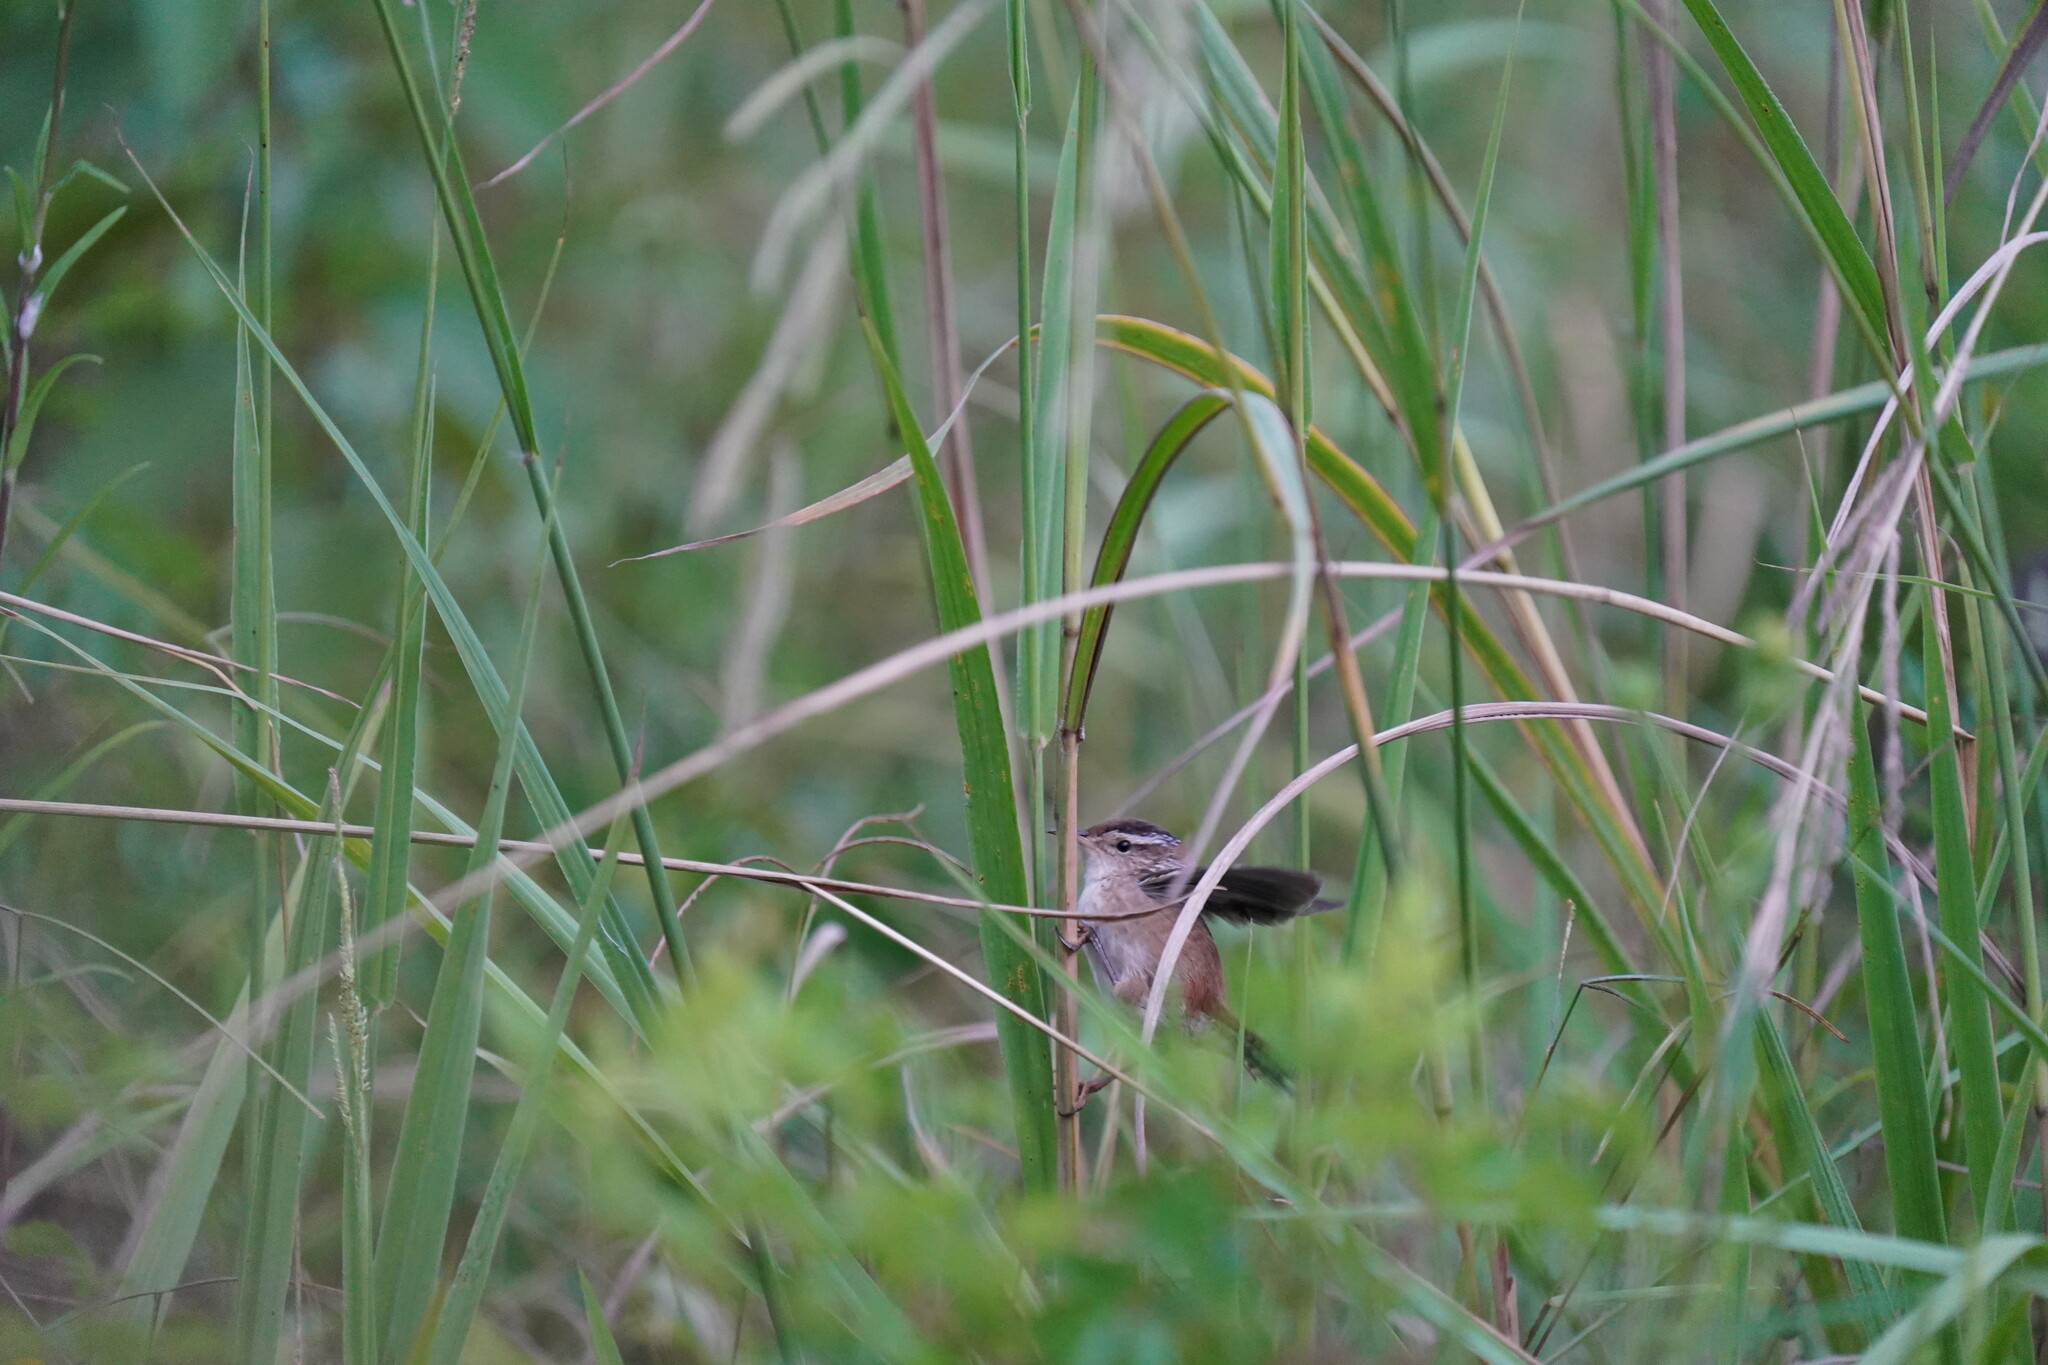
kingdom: Animalia
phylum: Chordata
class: Aves
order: Passeriformes
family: Troglodytidae
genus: Cistothorus
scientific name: Cistothorus palustris
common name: Marsh wren
